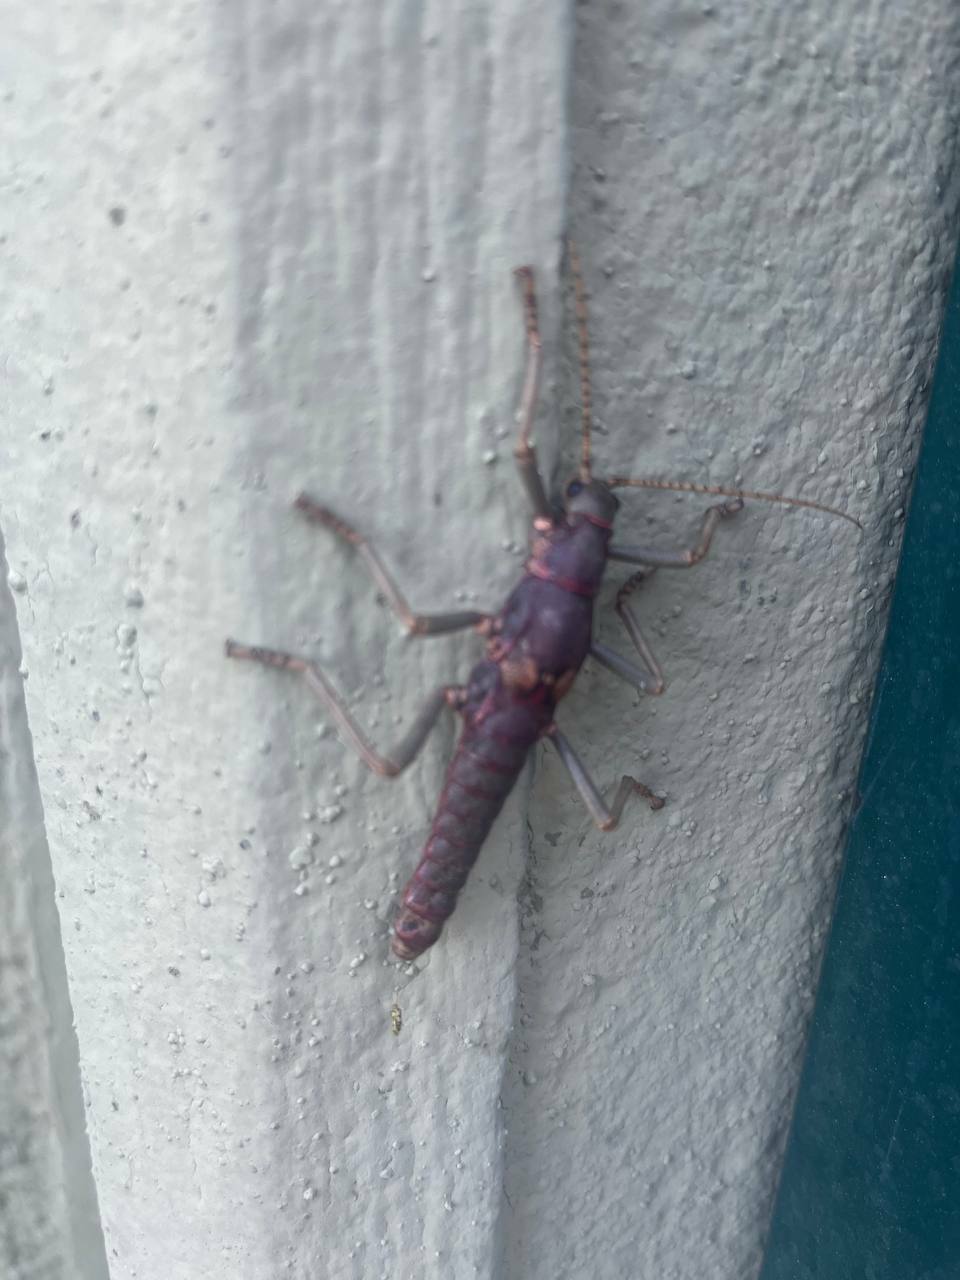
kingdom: Animalia
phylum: Arthropoda
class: Insecta
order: Phasmida
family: Agathemeridae
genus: Agathemera
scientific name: Agathemera luteola
